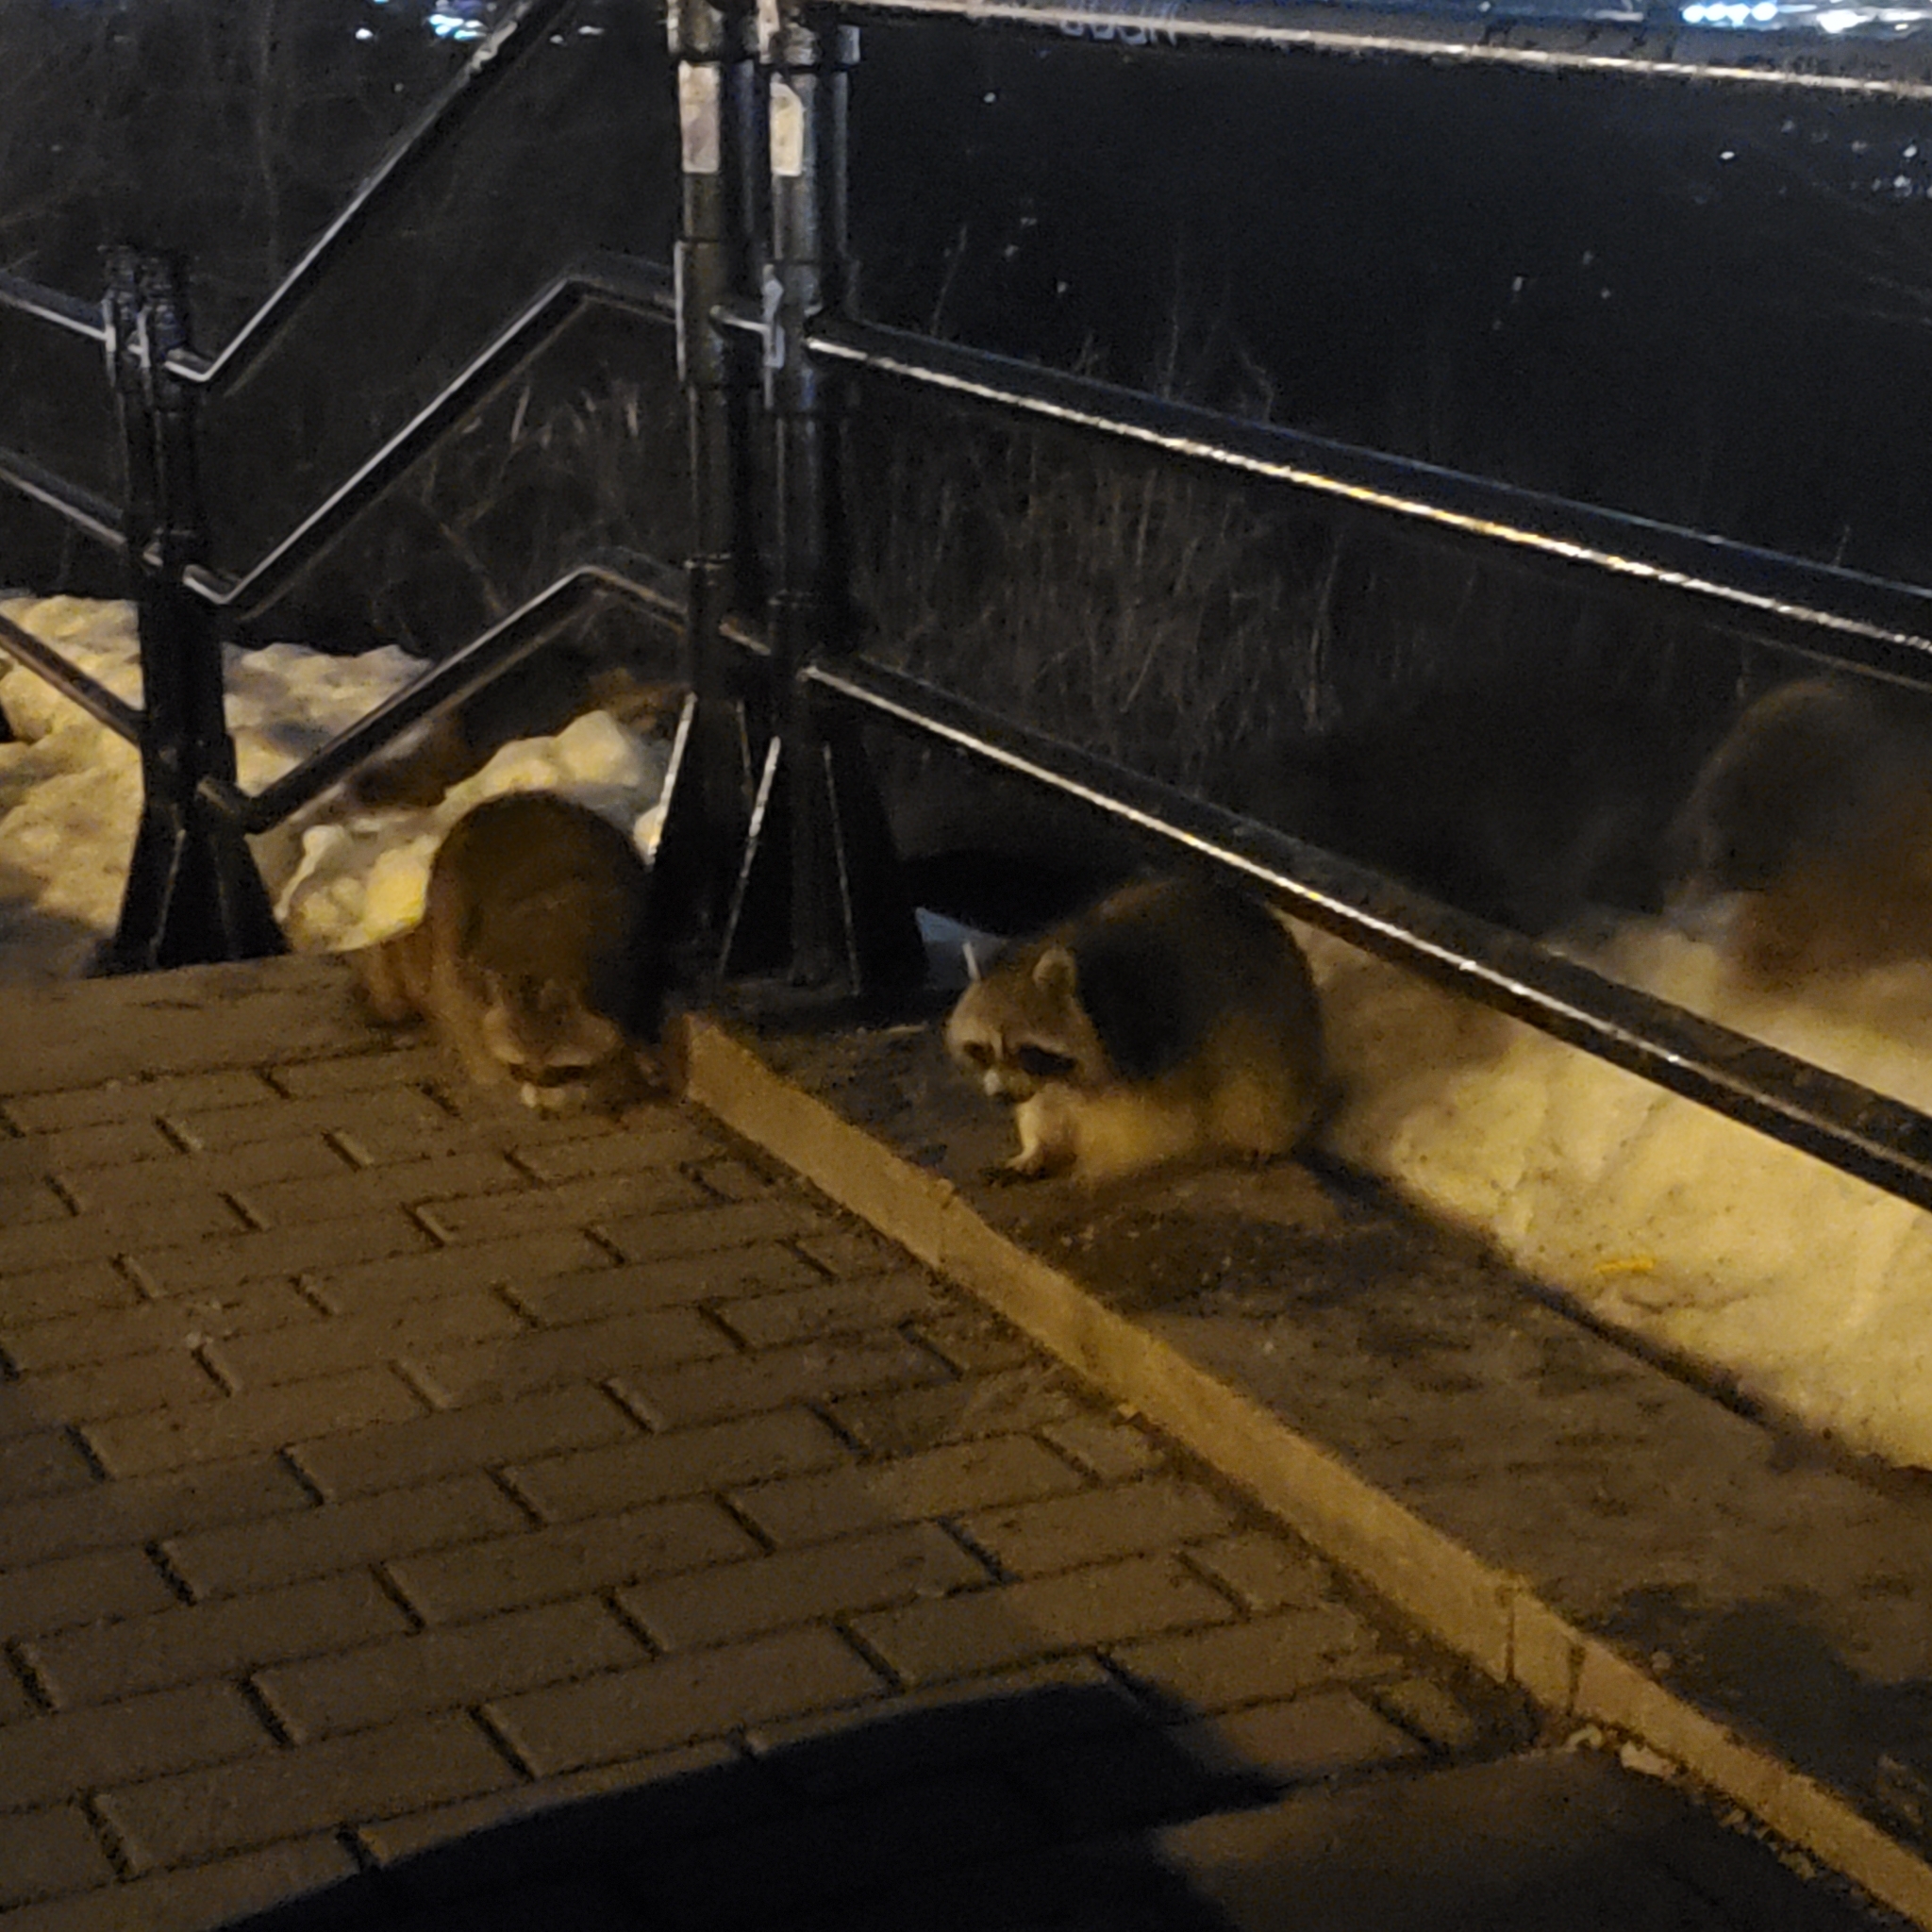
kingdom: Animalia
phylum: Chordata
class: Mammalia
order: Carnivora
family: Procyonidae
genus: Procyon
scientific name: Procyon lotor
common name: Raccoon
